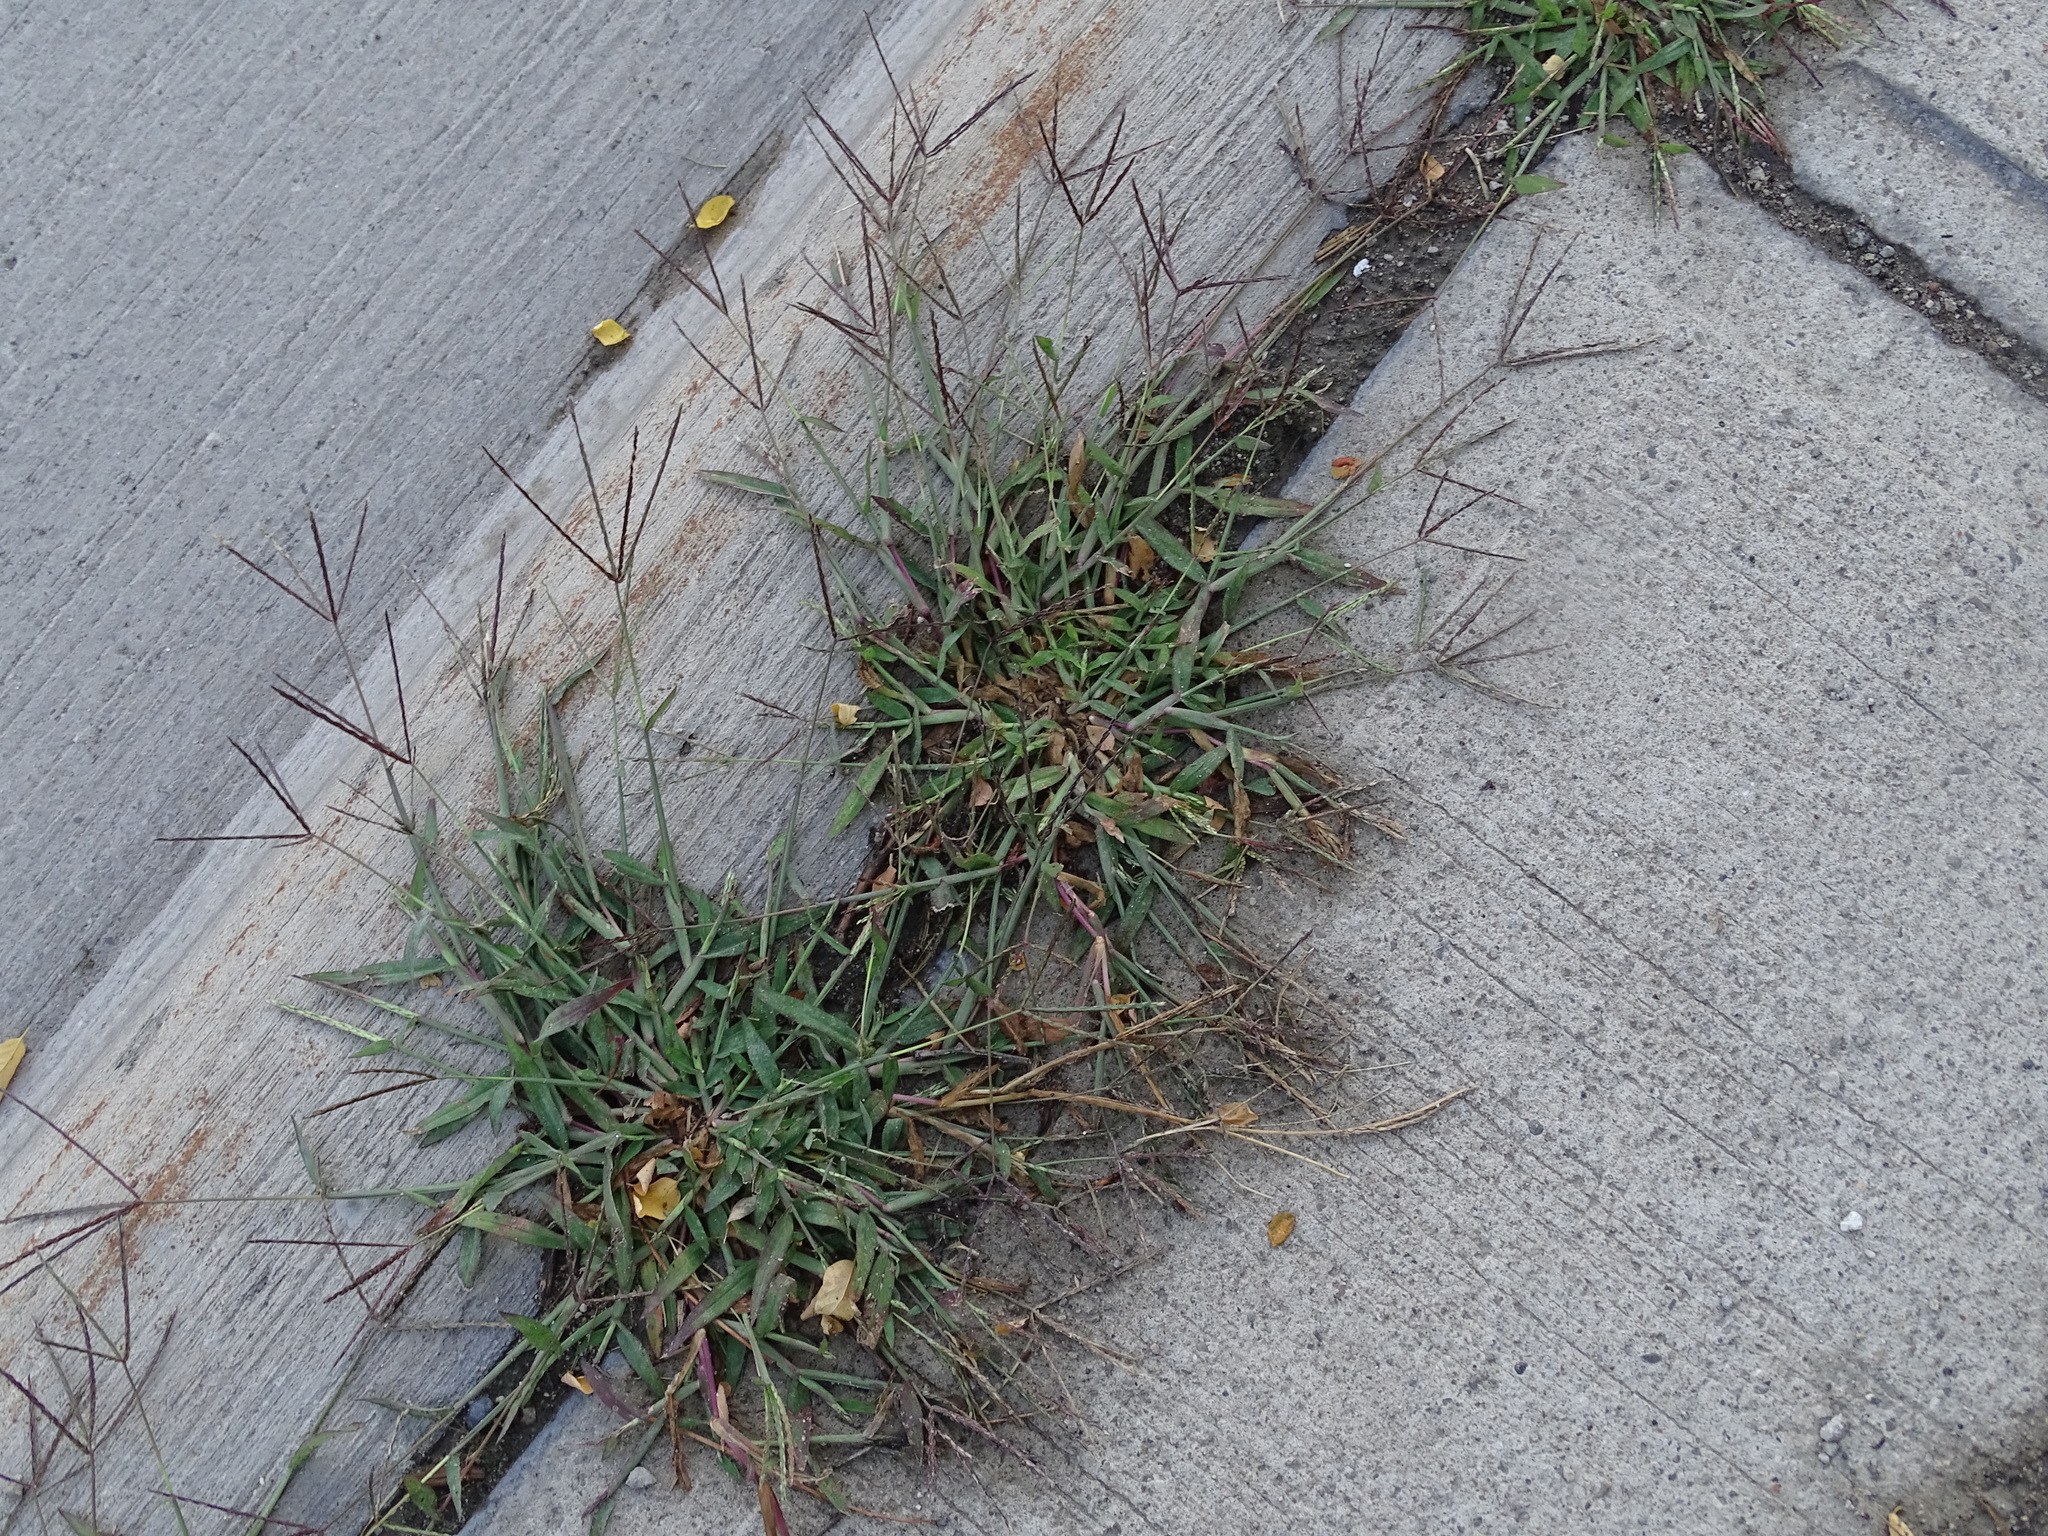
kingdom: Plantae
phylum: Tracheophyta
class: Liliopsida
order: Poales
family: Poaceae
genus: Digitaria
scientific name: Digitaria sanguinalis
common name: Hairy crabgrass
